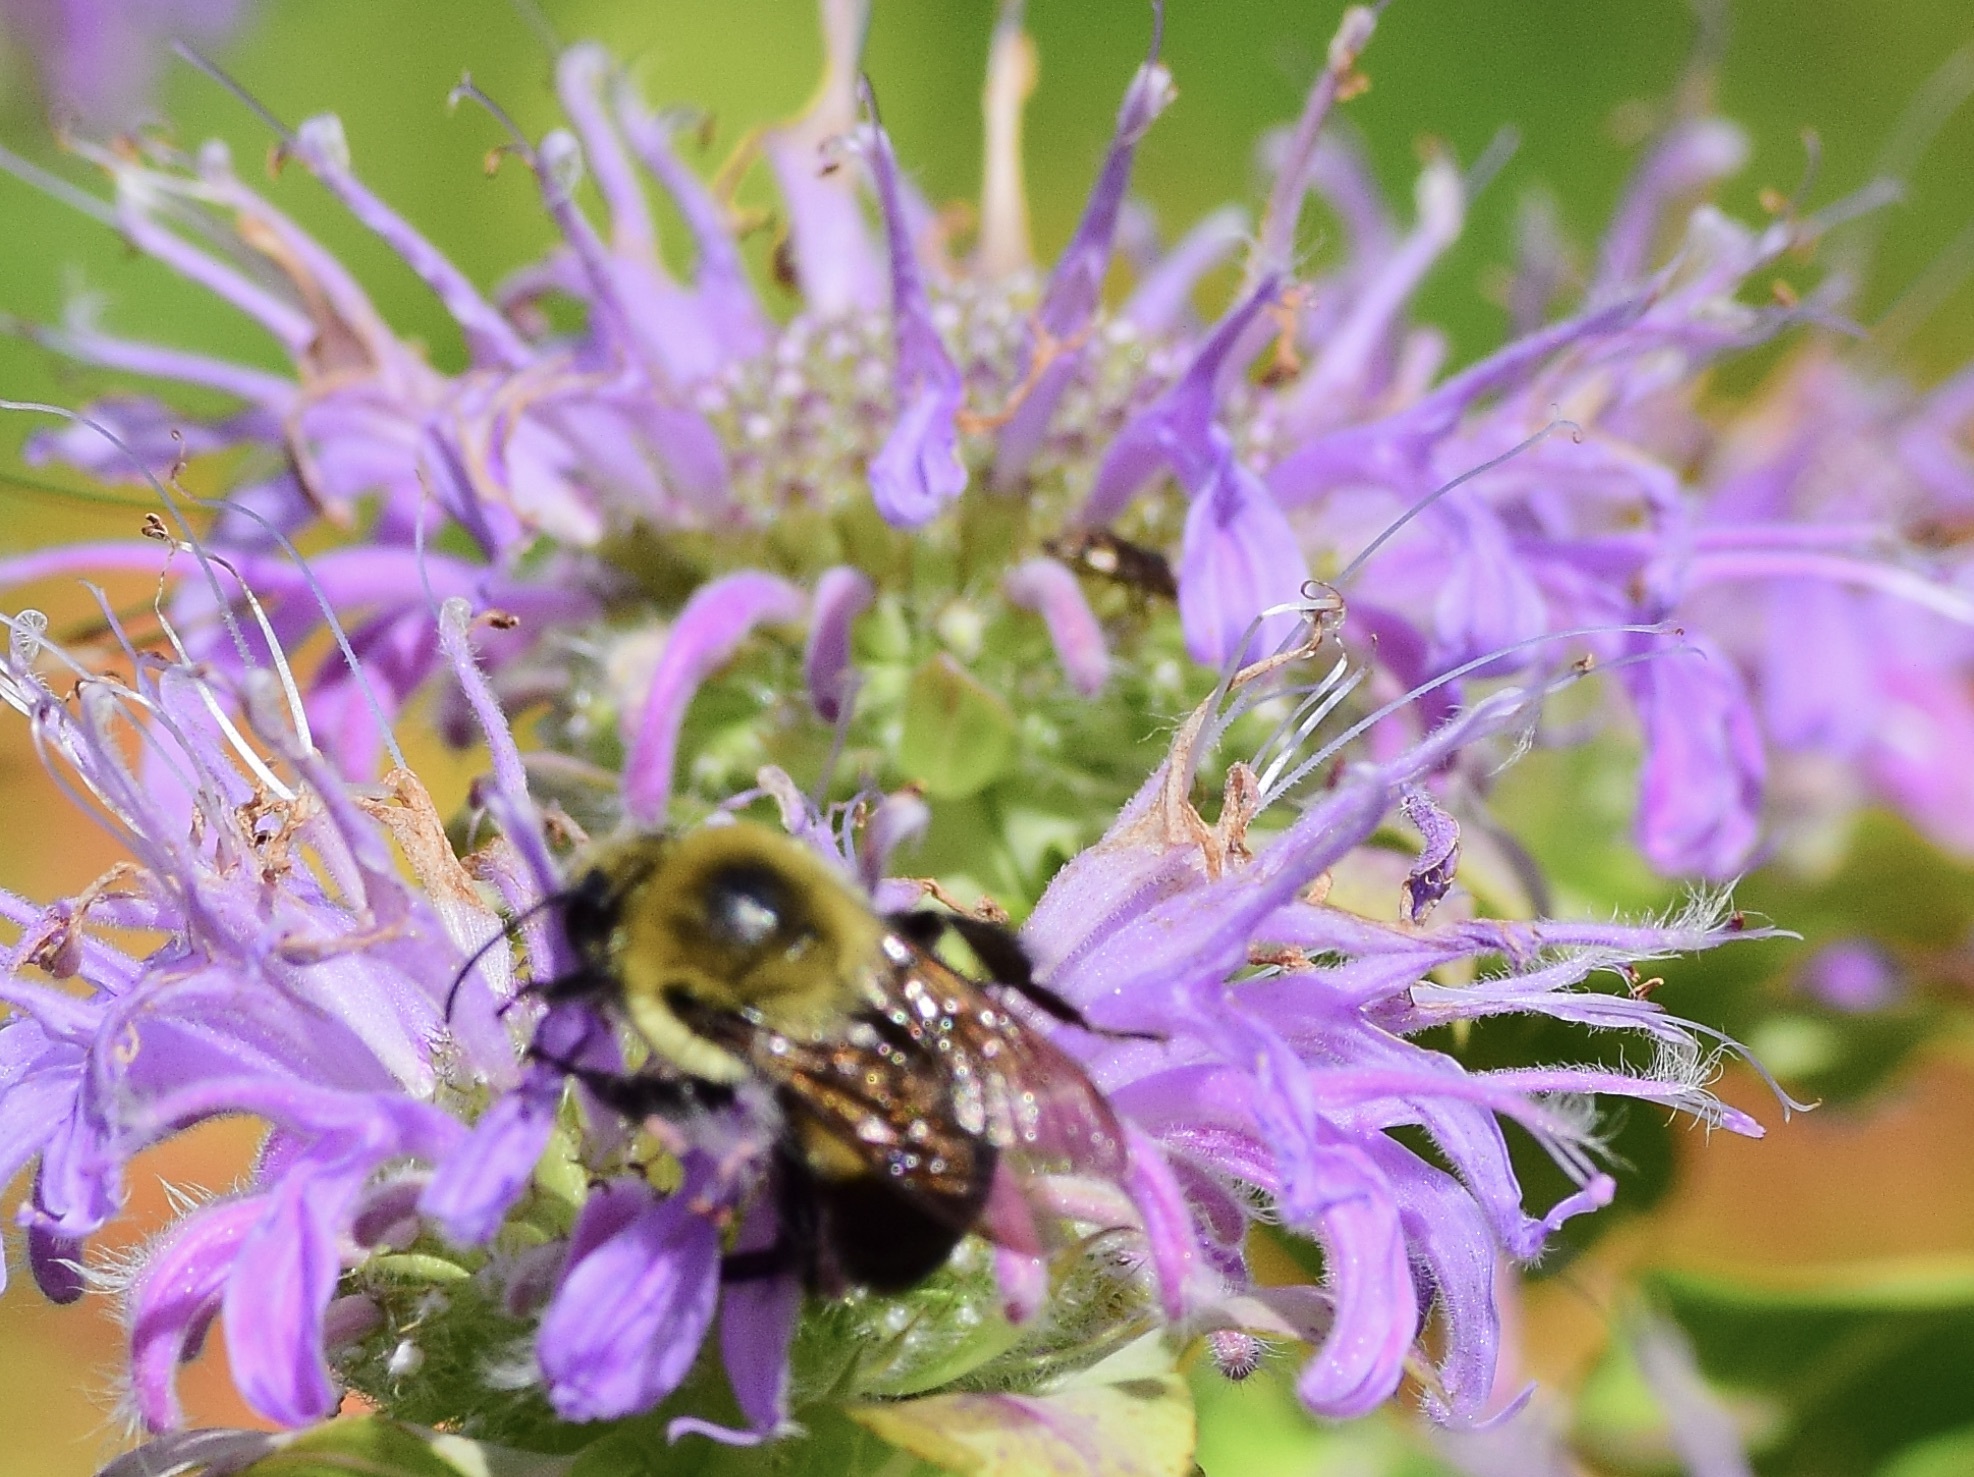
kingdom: Animalia
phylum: Arthropoda
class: Insecta
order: Hymenoptera
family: Apidae
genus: Bombus
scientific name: Bombus griseocollis
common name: Brown-belted bumble bee
